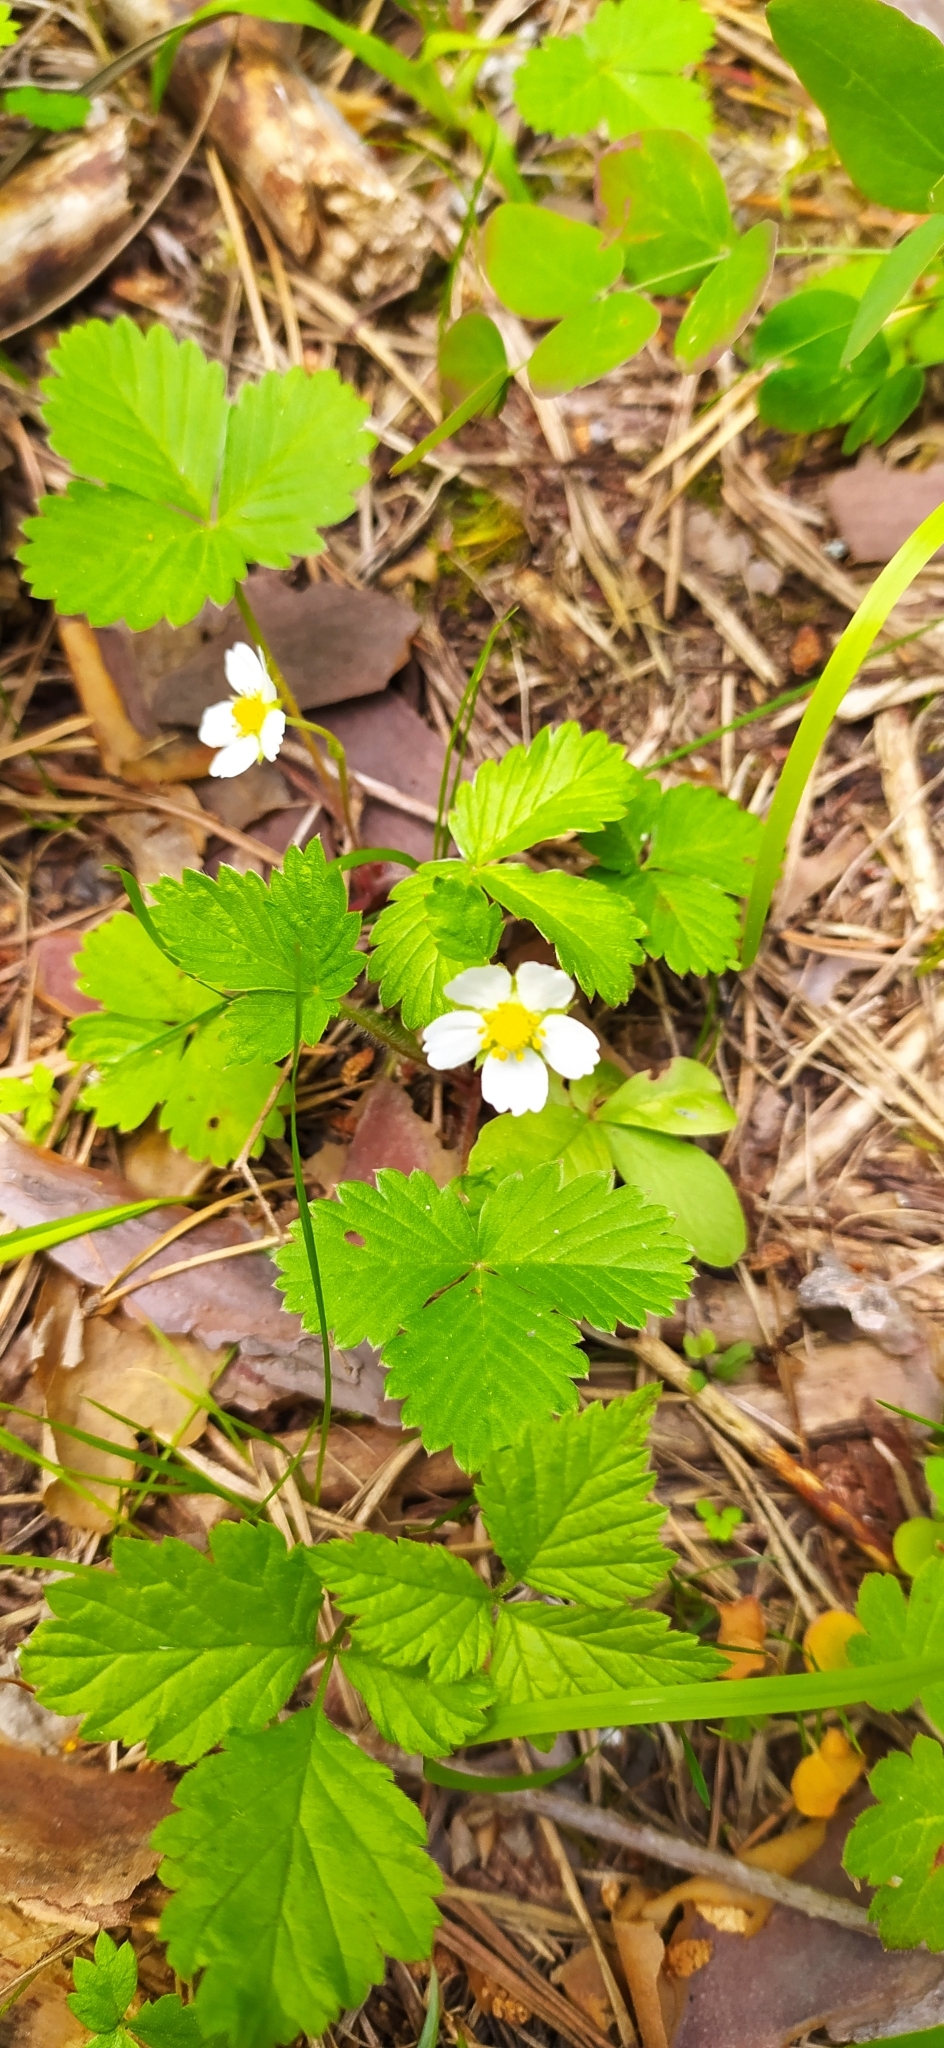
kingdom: Plantae
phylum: Tracheophyta
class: Magnoliopsida
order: Rosales
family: Rosaceae
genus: Fragaria
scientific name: Fragaria vesca
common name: Wild strawberry
